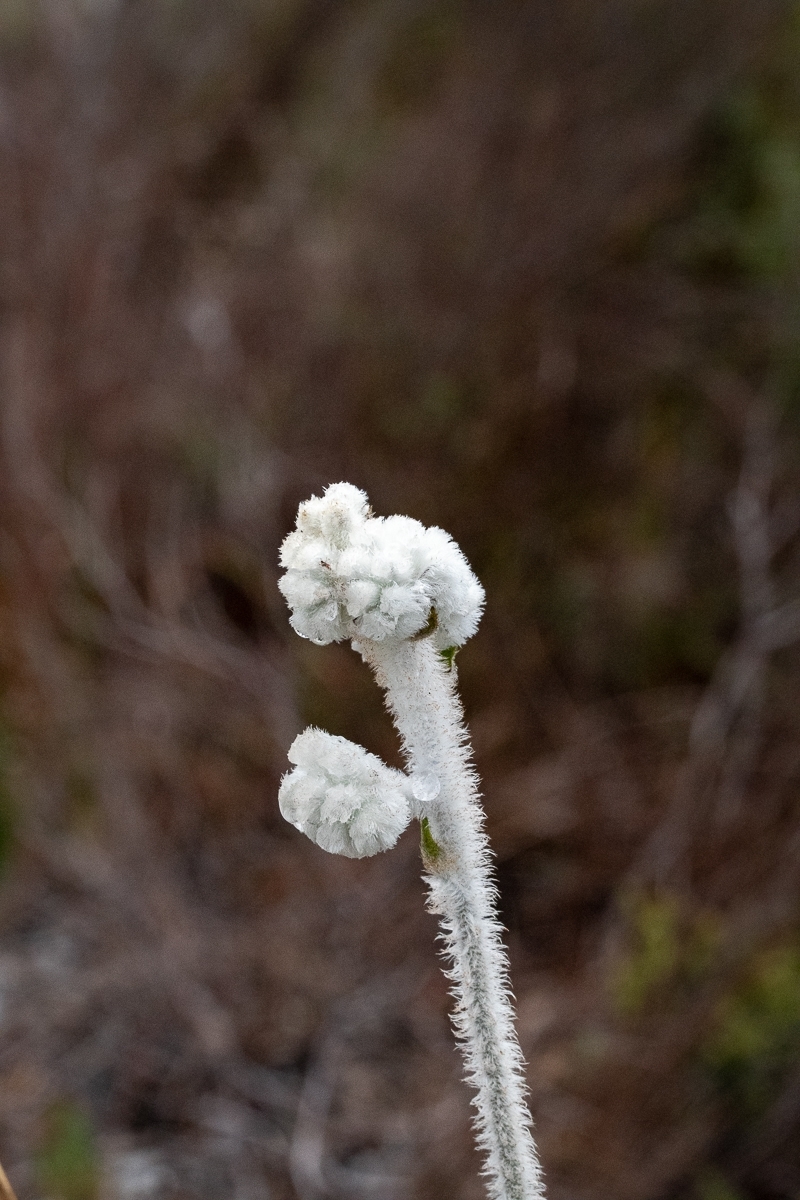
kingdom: Plantae
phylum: Tracheophyta
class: Liliopsida
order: Asparagales
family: Lanariaceae
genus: Lanaria
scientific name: Lanaria lanata
